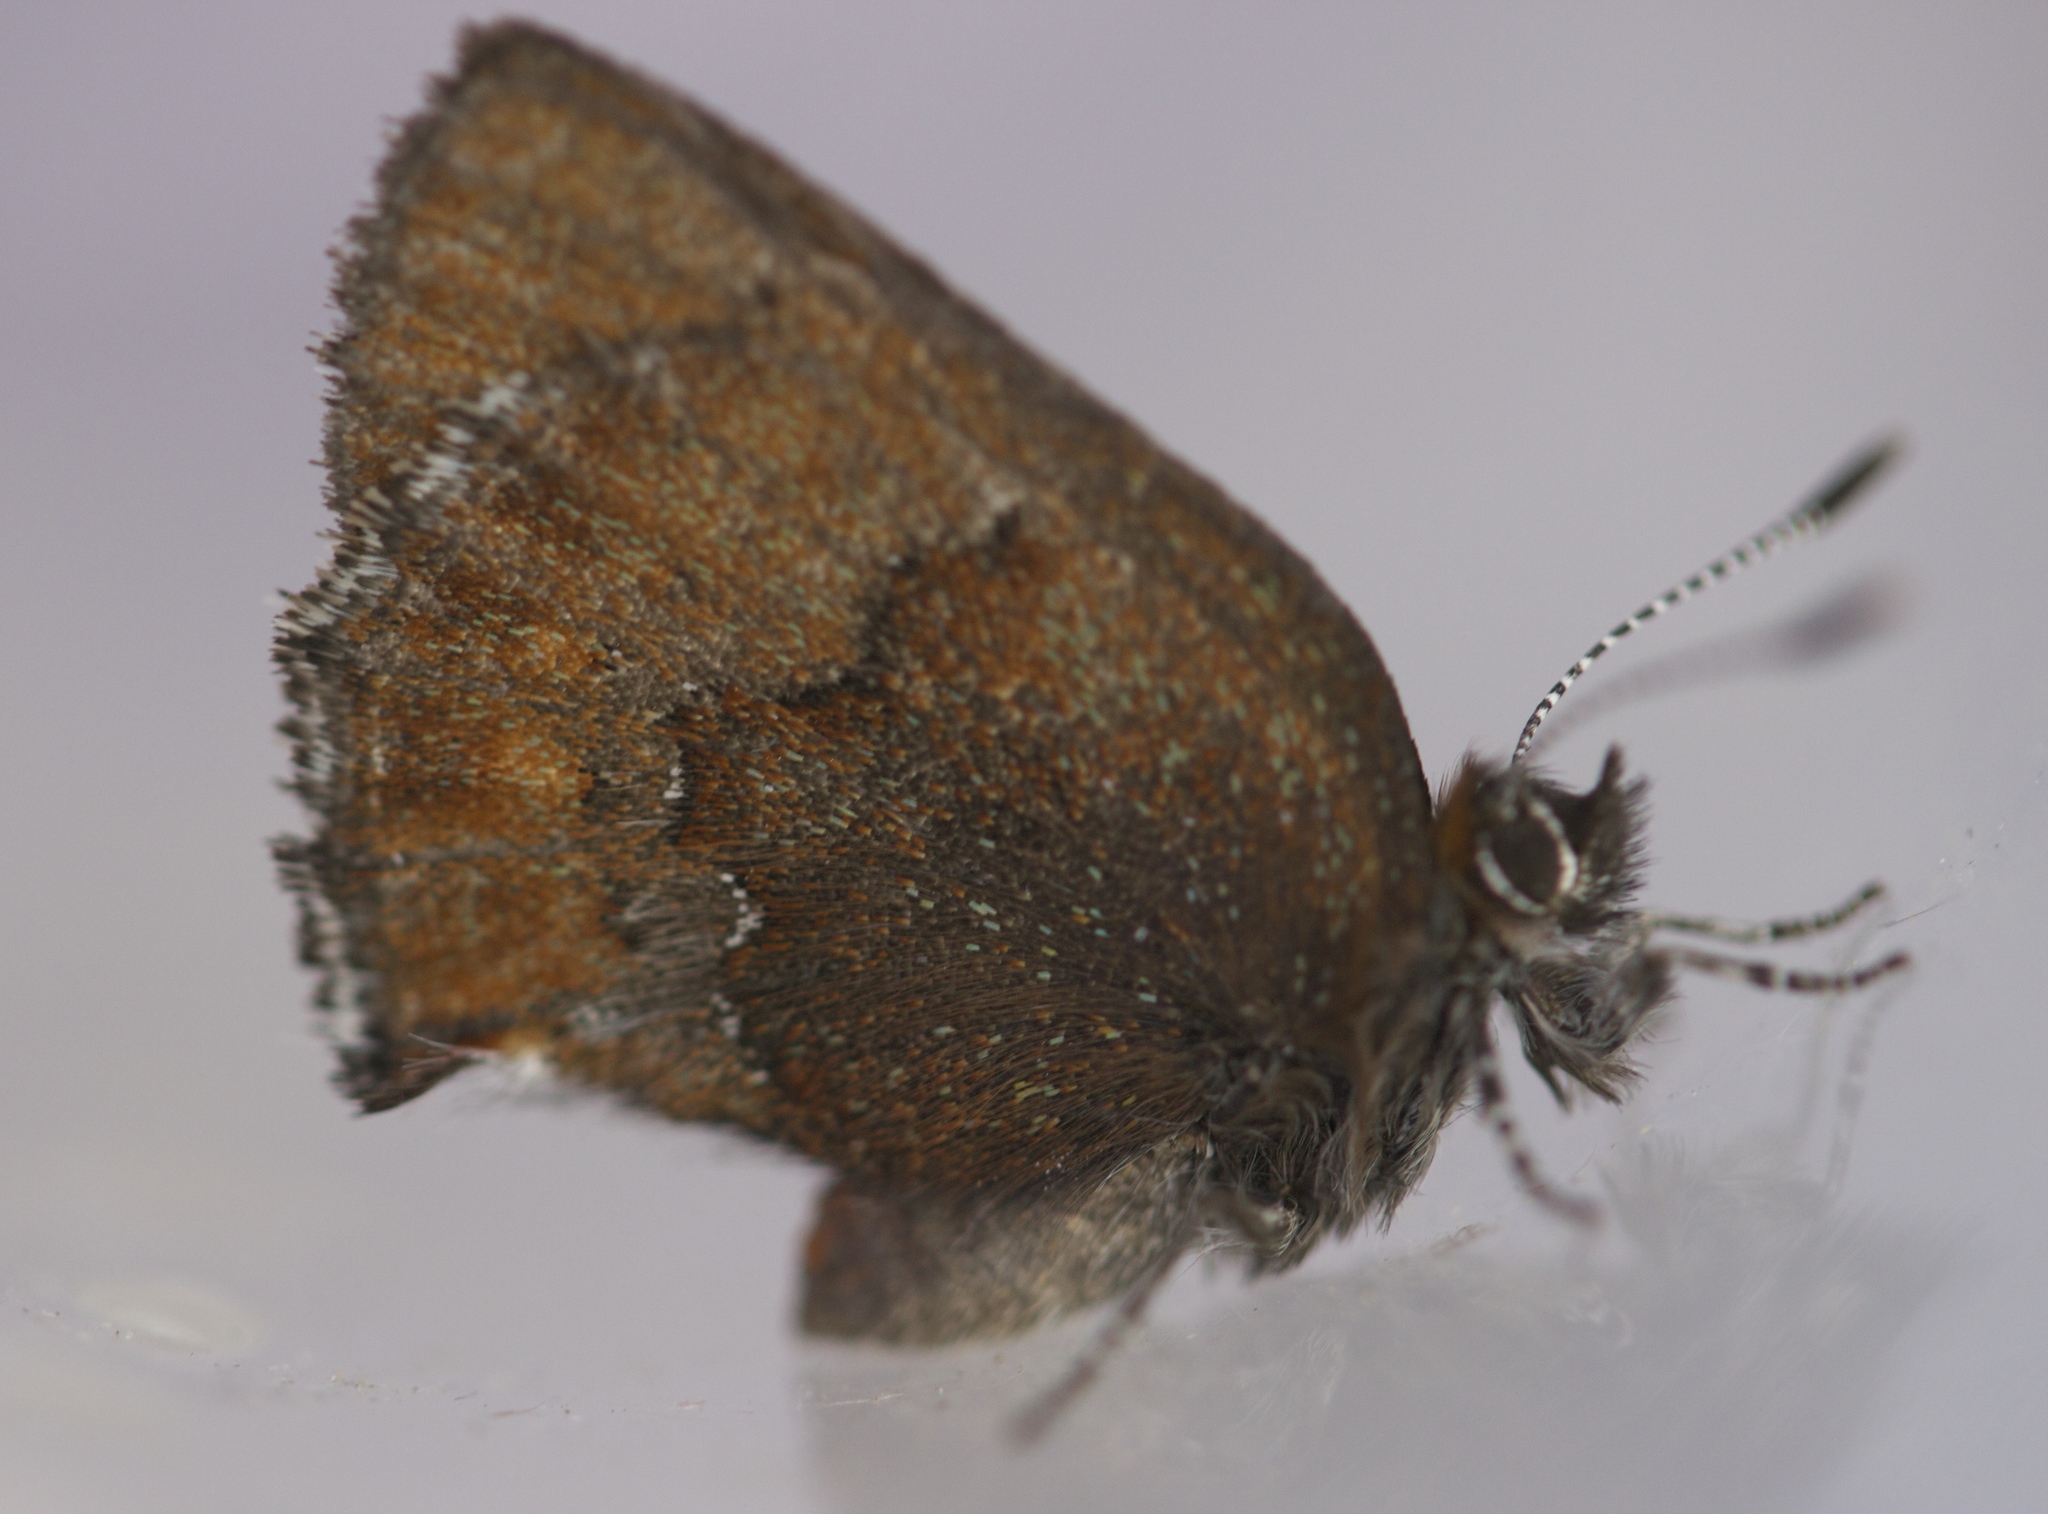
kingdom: Animalia
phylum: Arthropoda
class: Insecta
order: Lepidoptera
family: Lycaenidae
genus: Callophrys
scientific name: Callophrys mossii
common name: Moss' elfin
